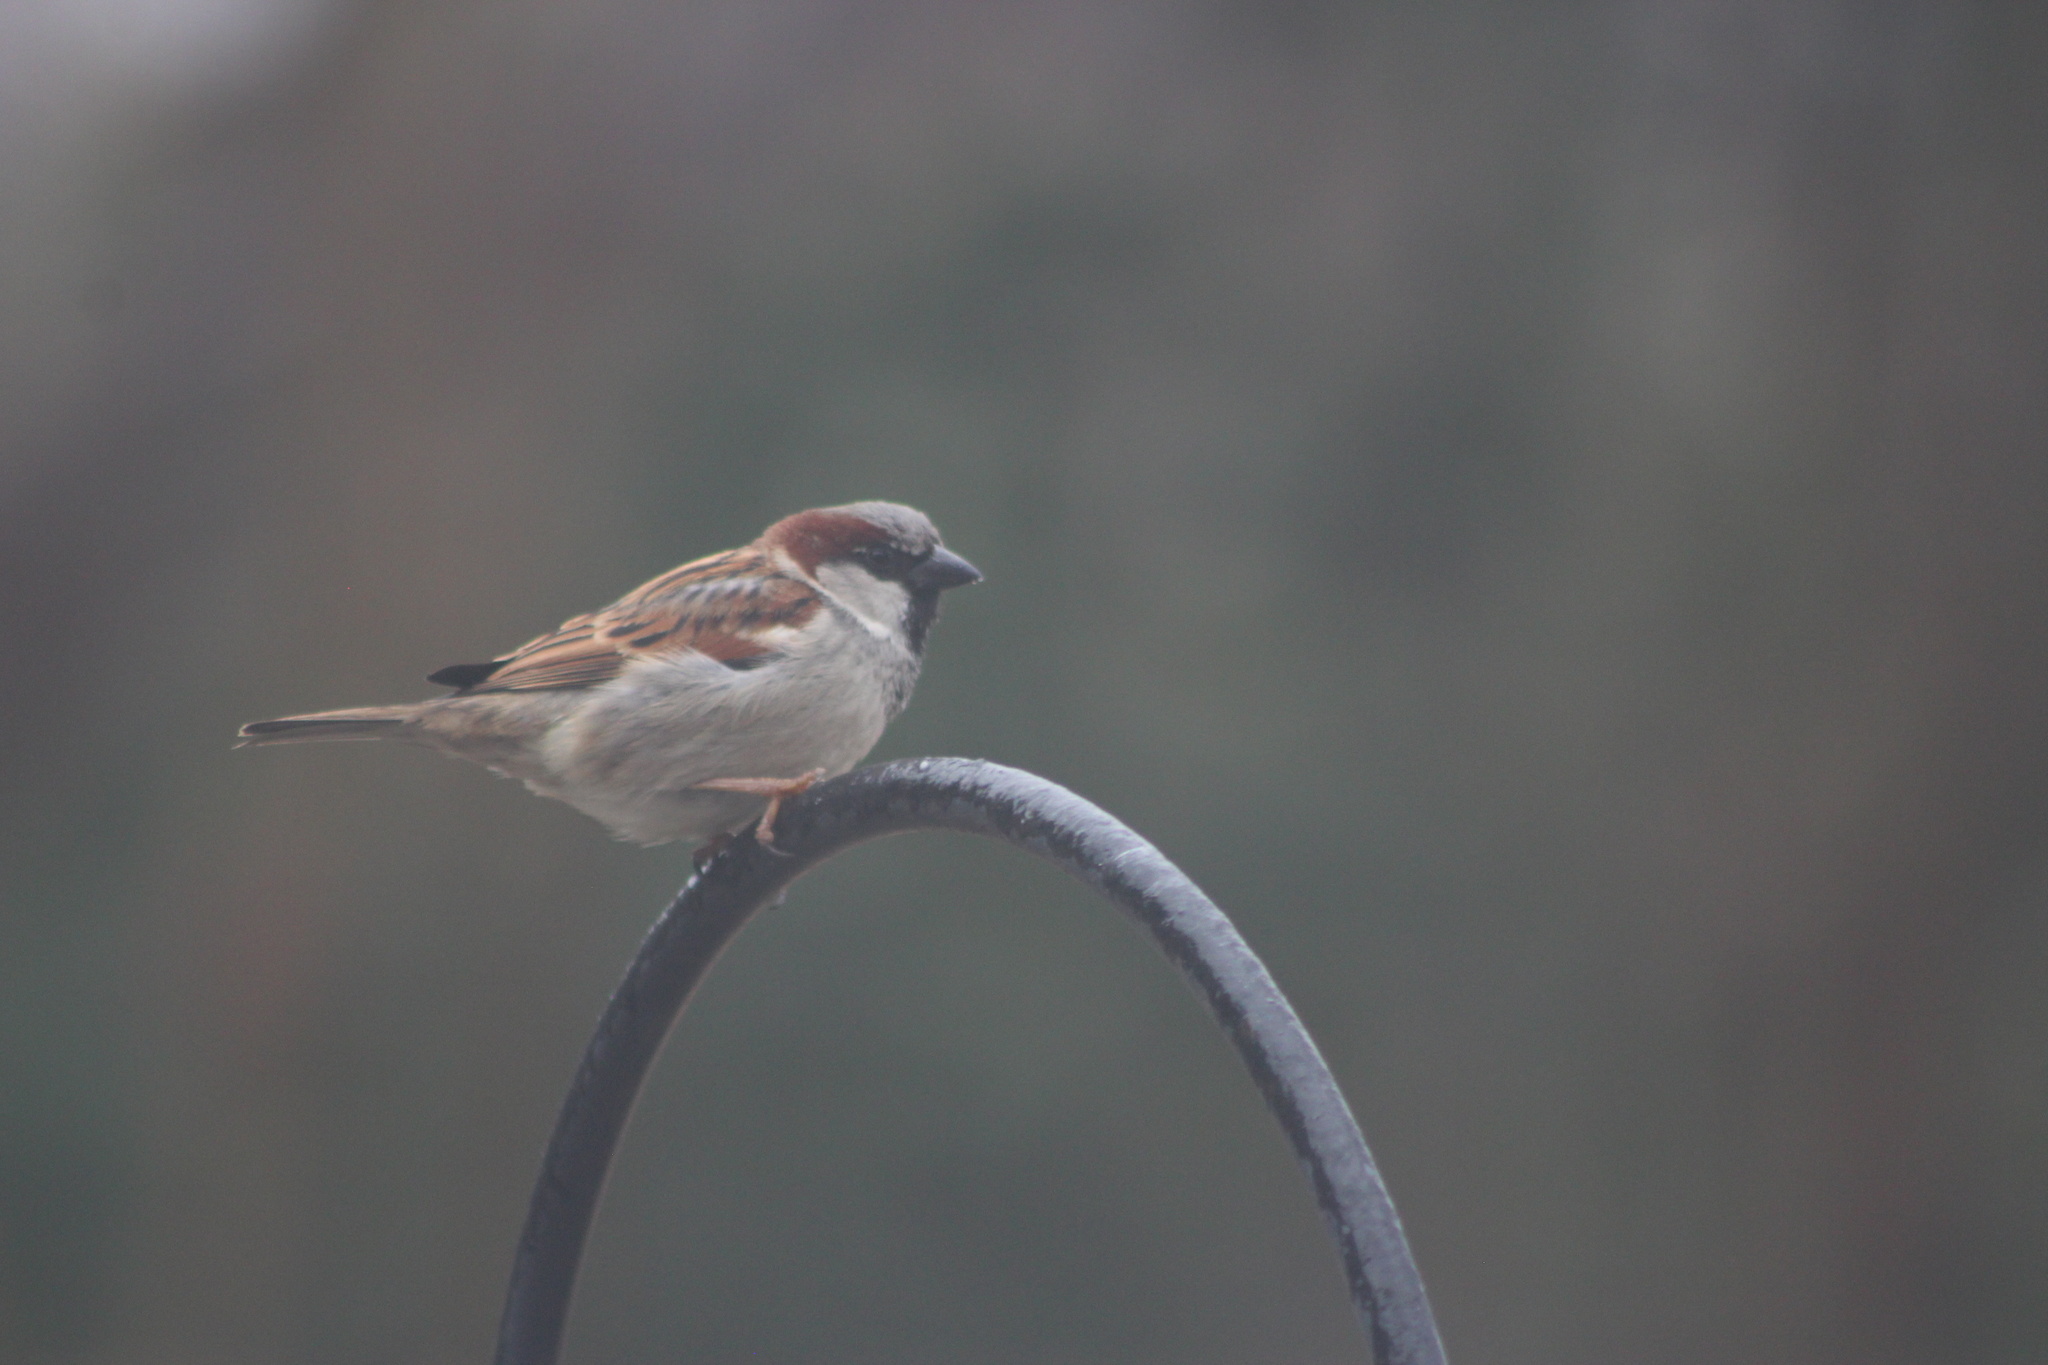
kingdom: Animalia
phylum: Chordata
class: Aves
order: Passeriformes
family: Passeridae
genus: Passer
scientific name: Passer domesticus
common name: House sparrow
